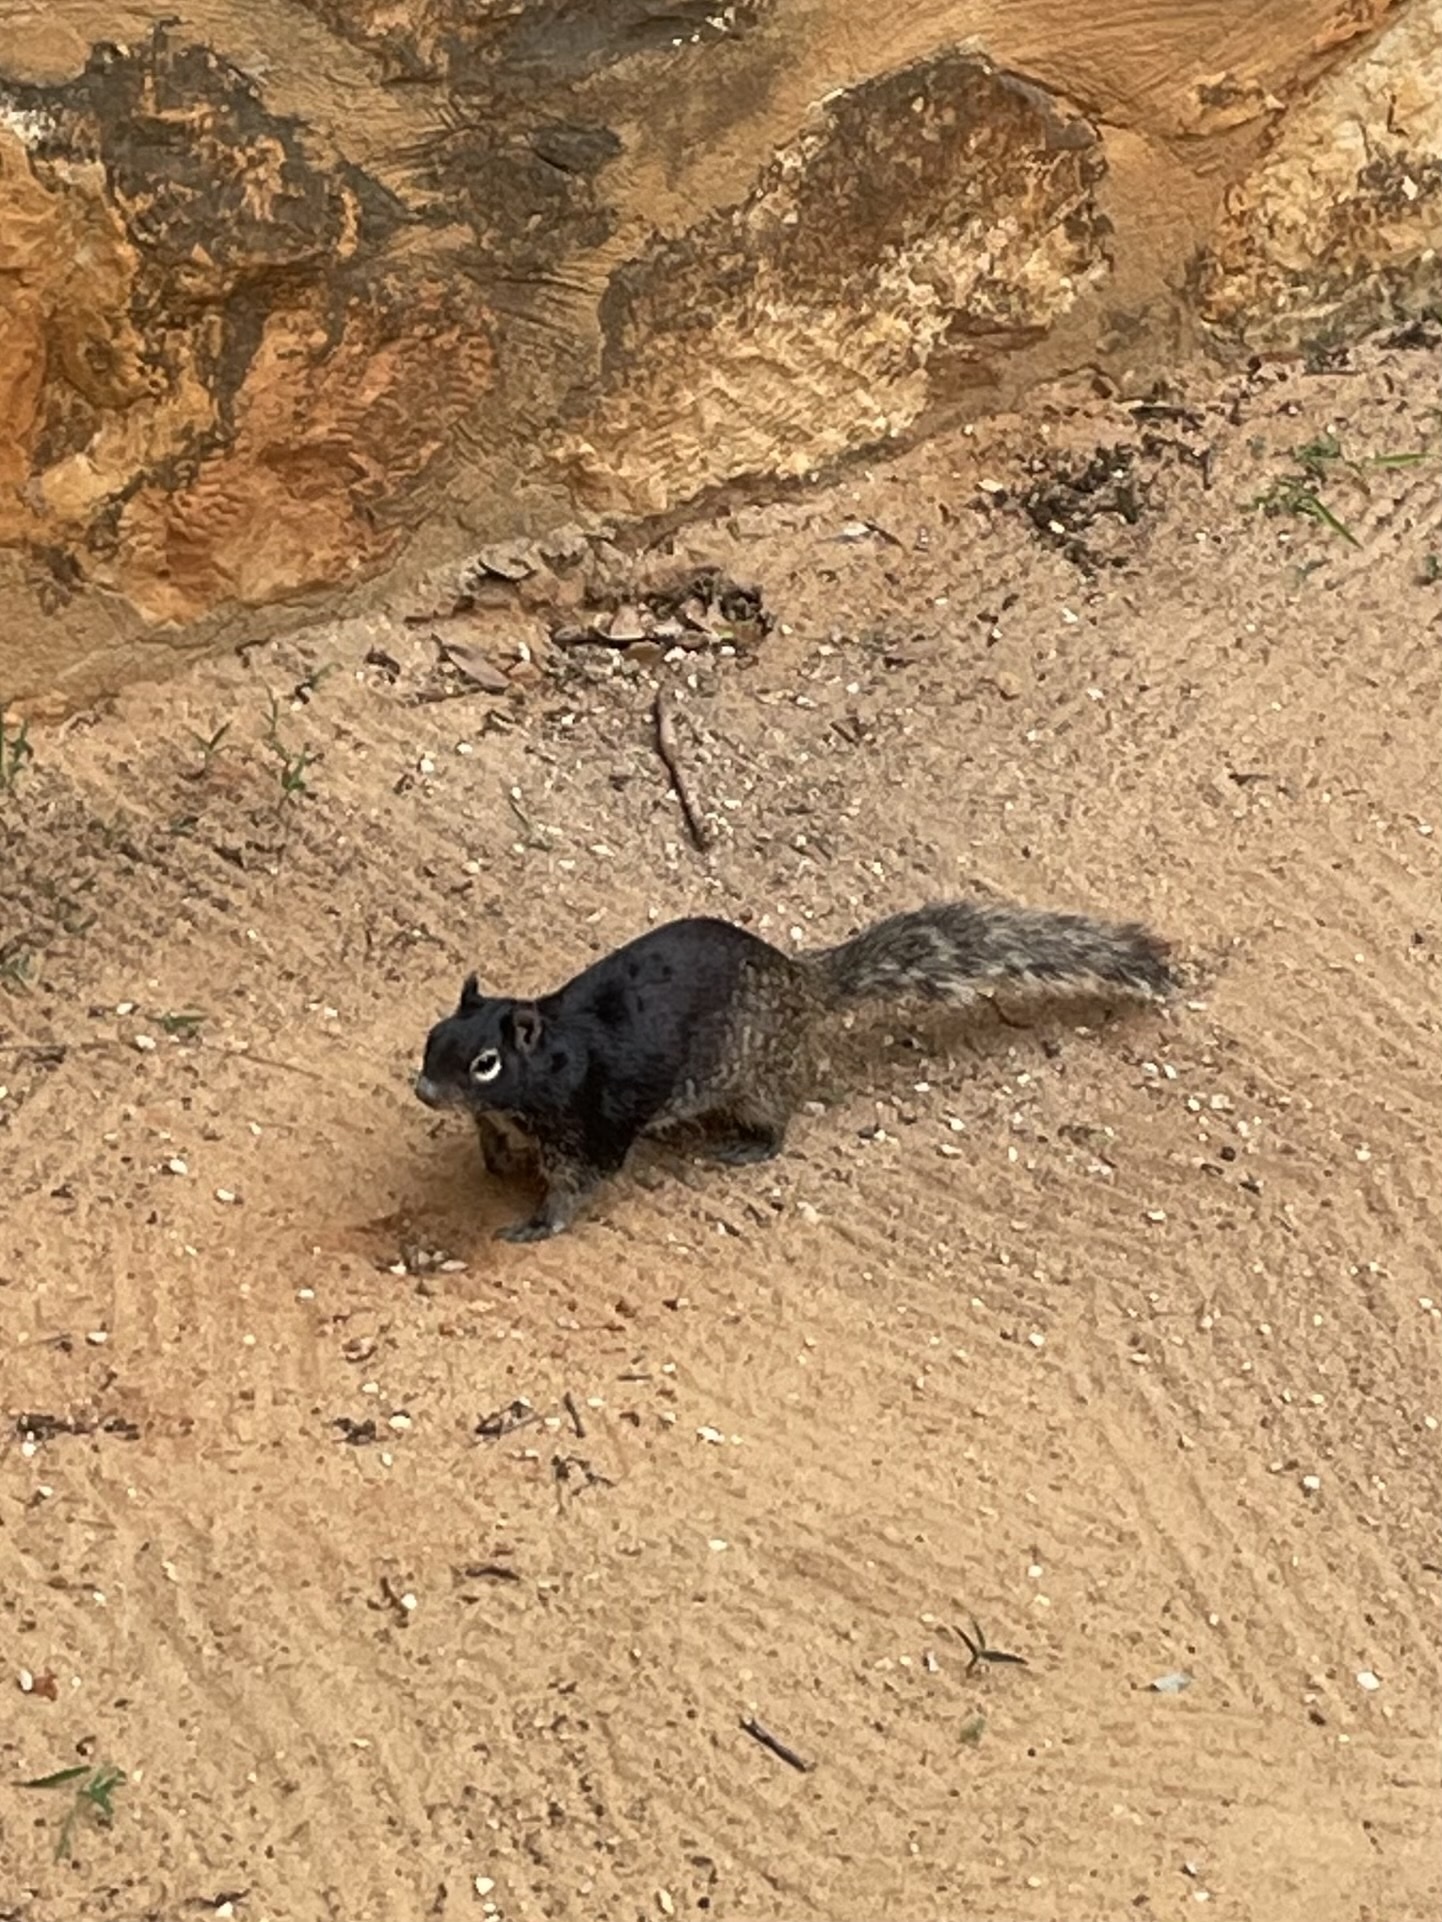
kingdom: Animalia
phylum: Chordata
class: Mammalia
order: Rodentia
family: Sciuridae
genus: Otospermophilus
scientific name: Otospermophilus variegatus
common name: Rock squirrel
